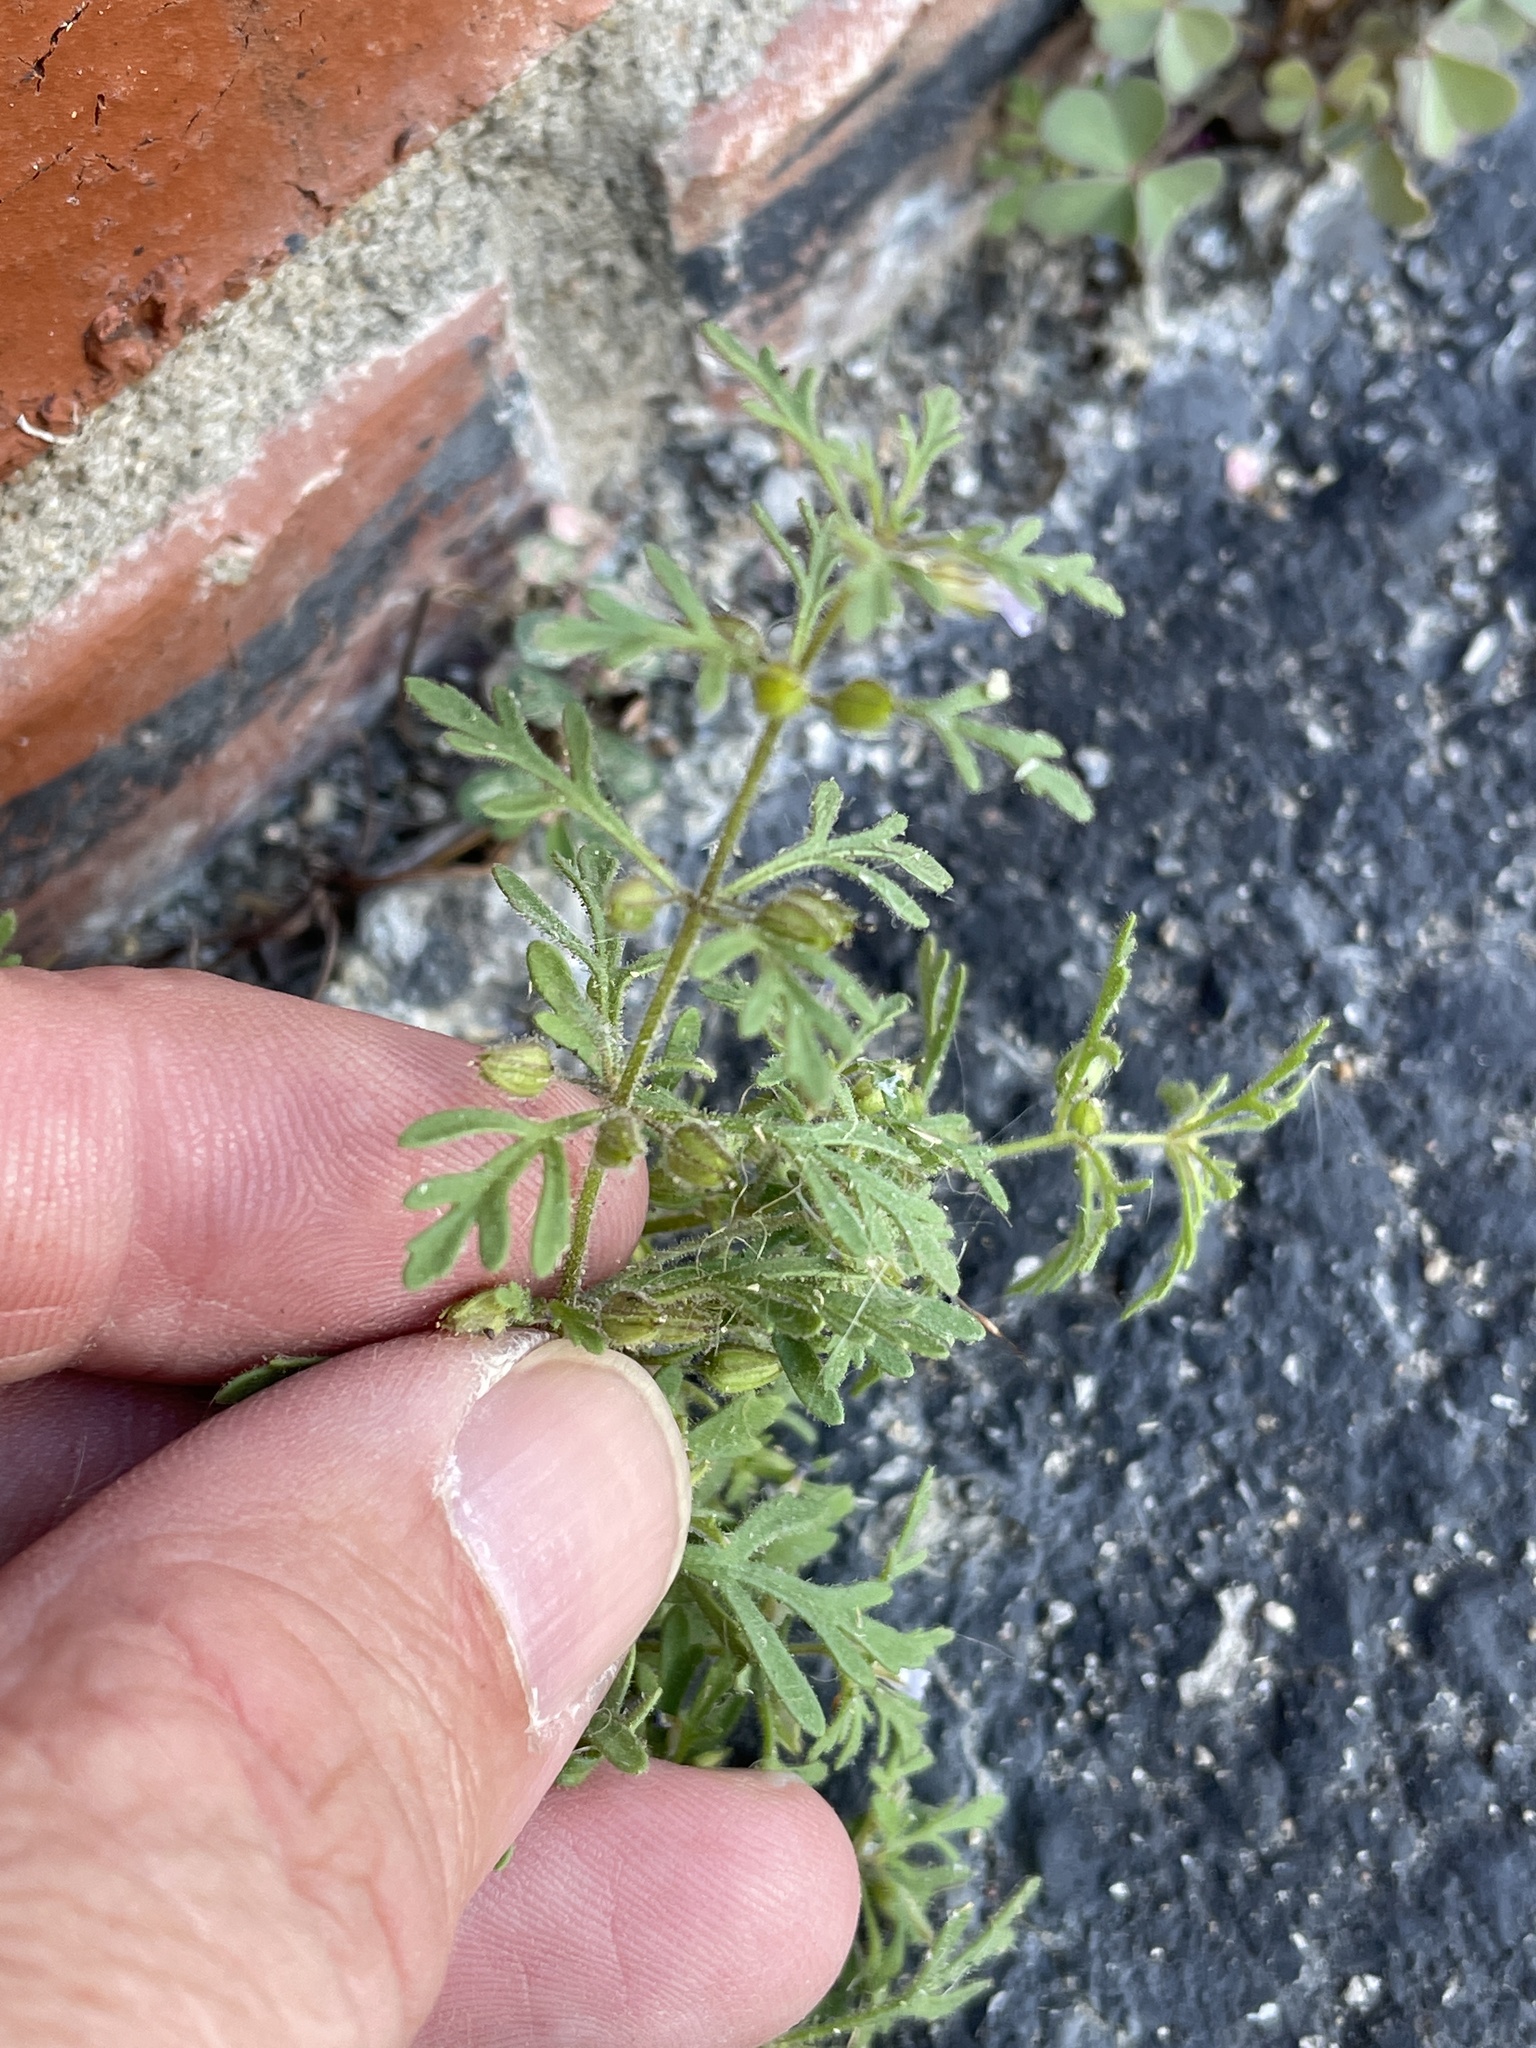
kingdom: Plantae
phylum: Tracheophyta
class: Magnoliopsida
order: Lamiales
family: Plantaginaceae
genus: Leucospora
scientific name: Leucospora multifida
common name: Narrow-leaf paleseed
